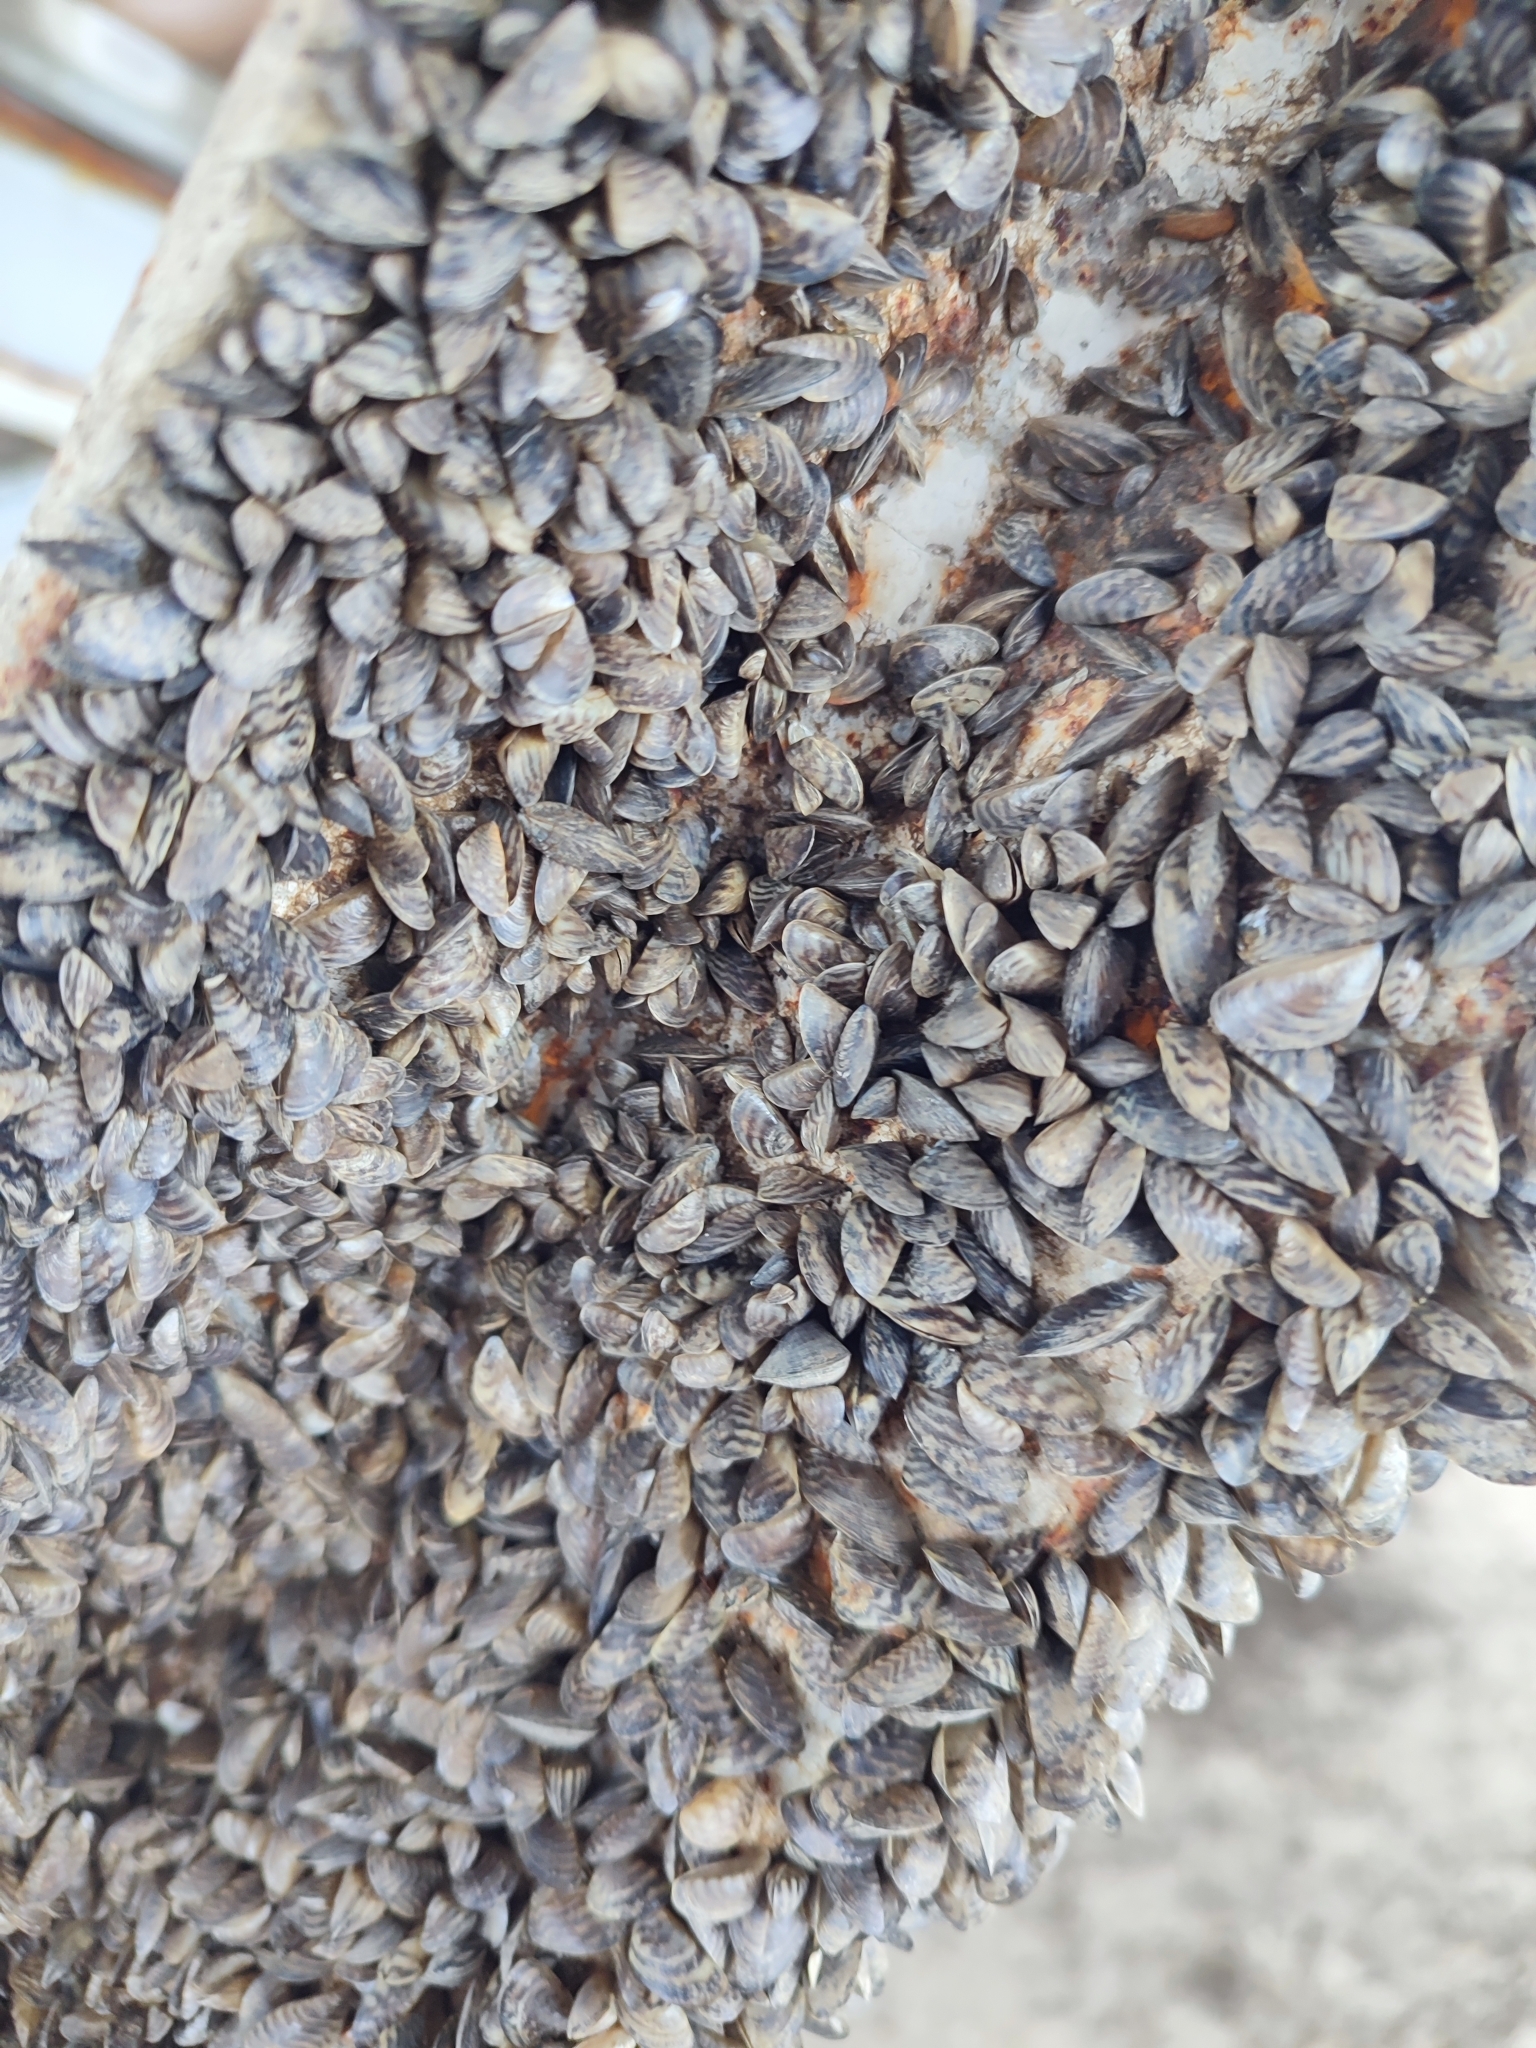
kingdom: Animalia
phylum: Mollusca
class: Bivalvia
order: Myida
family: Dreissenidae
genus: Dreissena
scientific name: Dreissena polymorpha
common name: Zebra mussel
